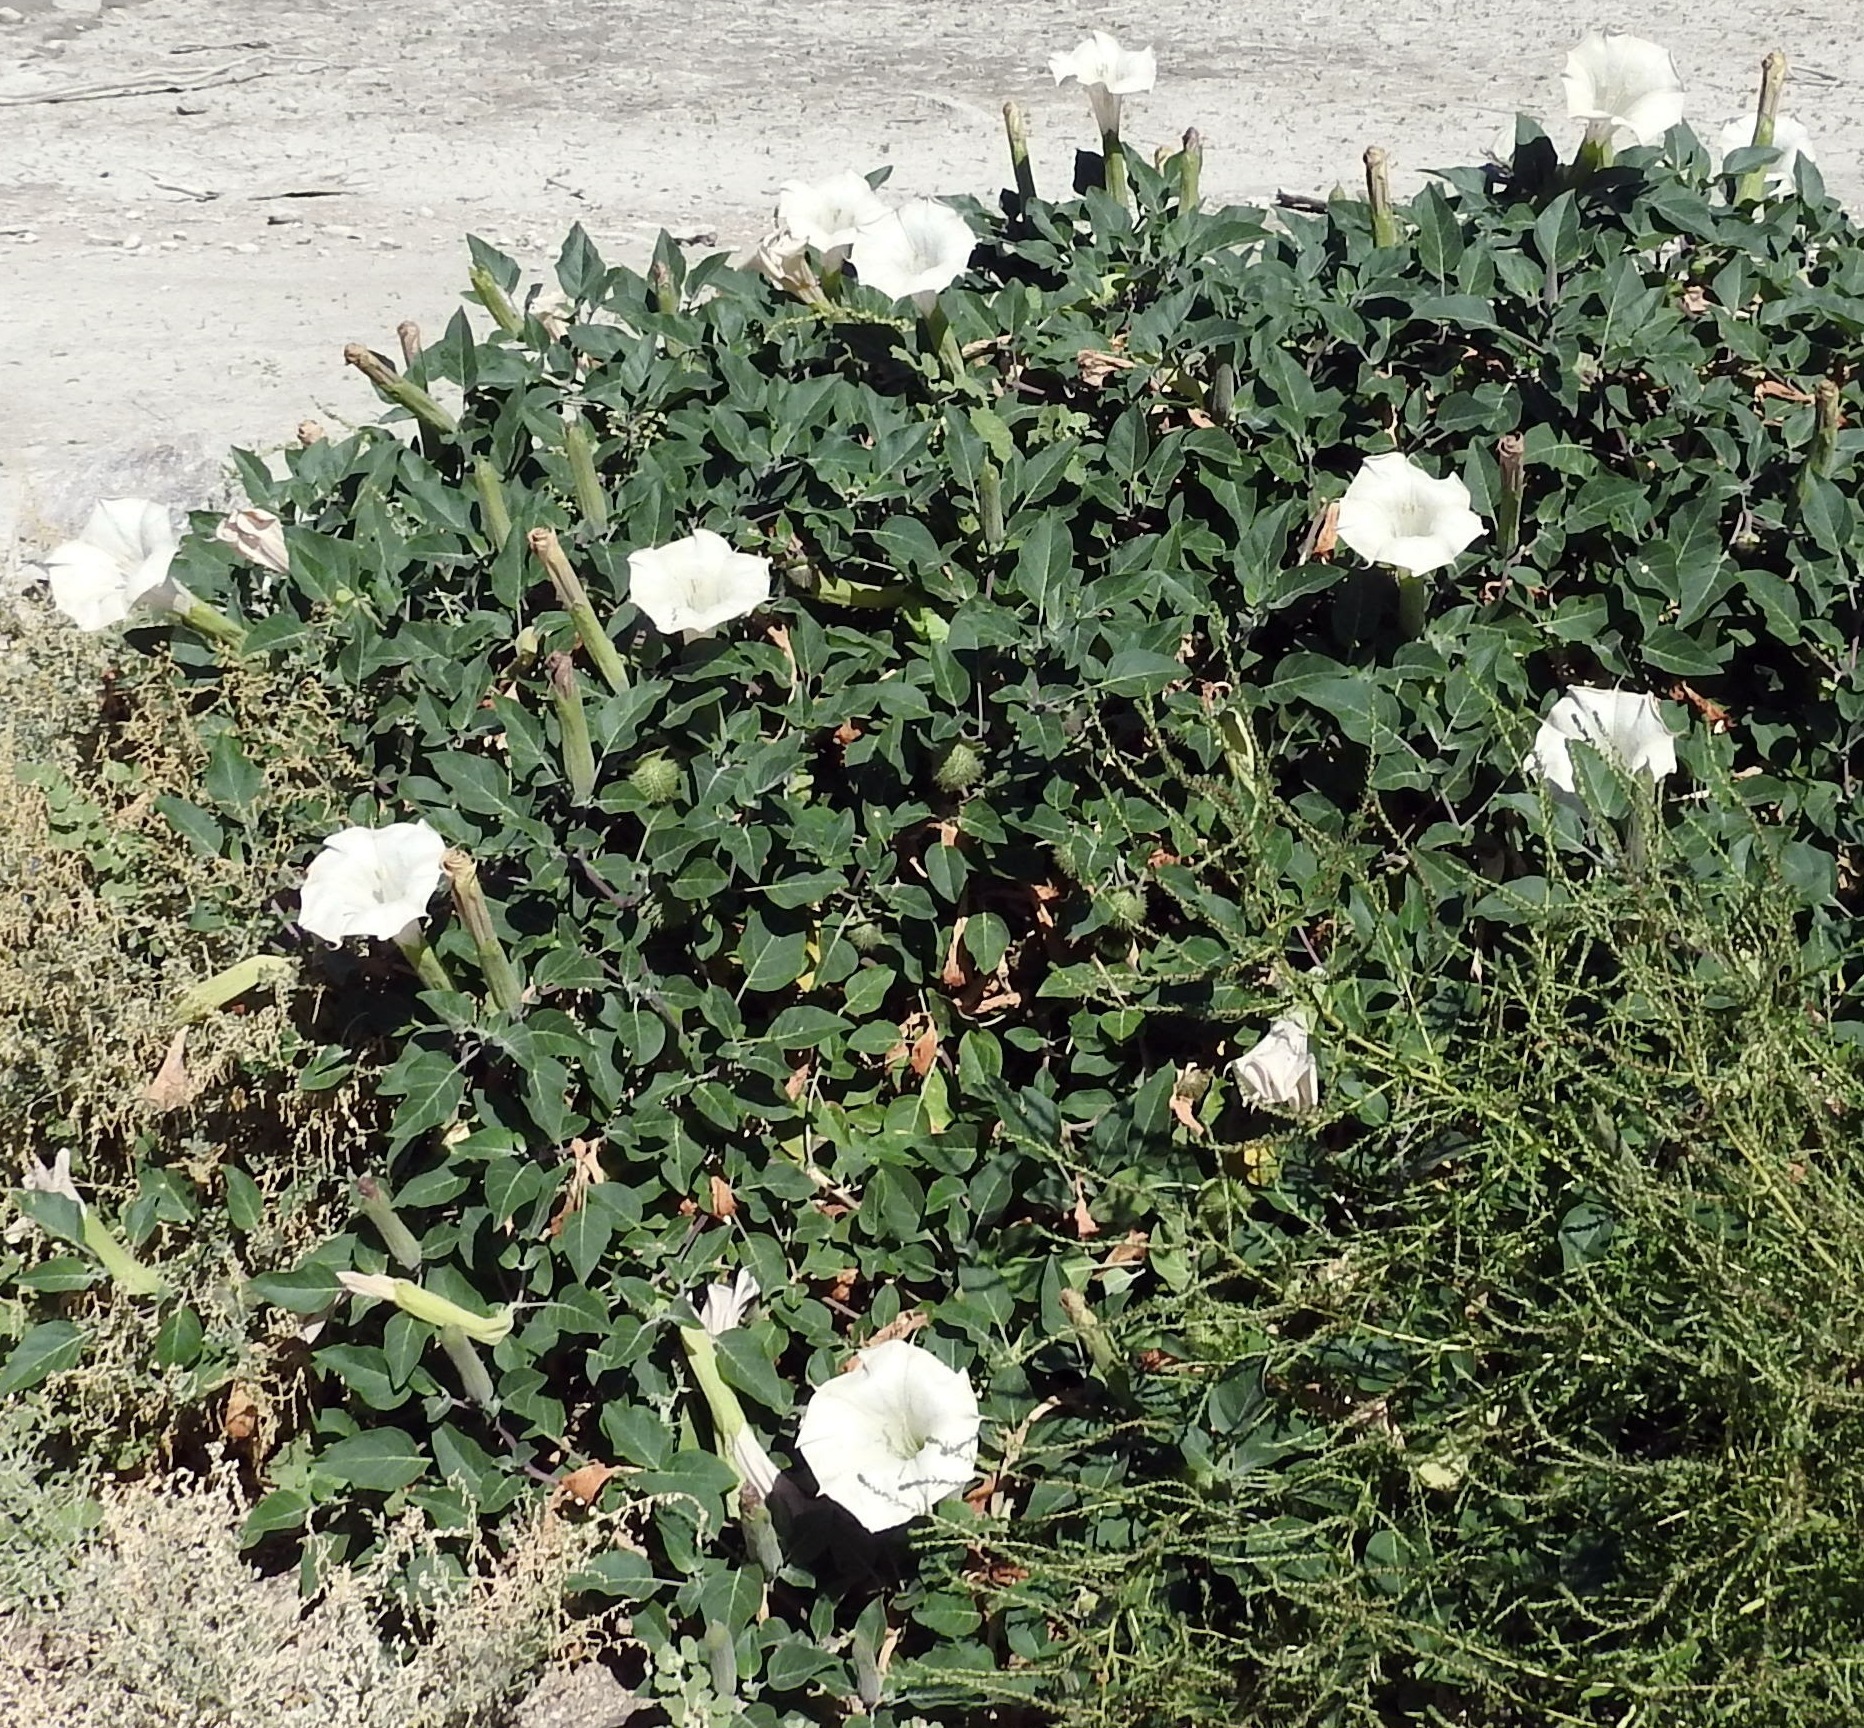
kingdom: Plantae
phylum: Tracheophyta
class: Magnoliopsida
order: Solanales
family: Solanaceae
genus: Datura
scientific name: Datura wrightii
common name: Sacred thorn-apple
